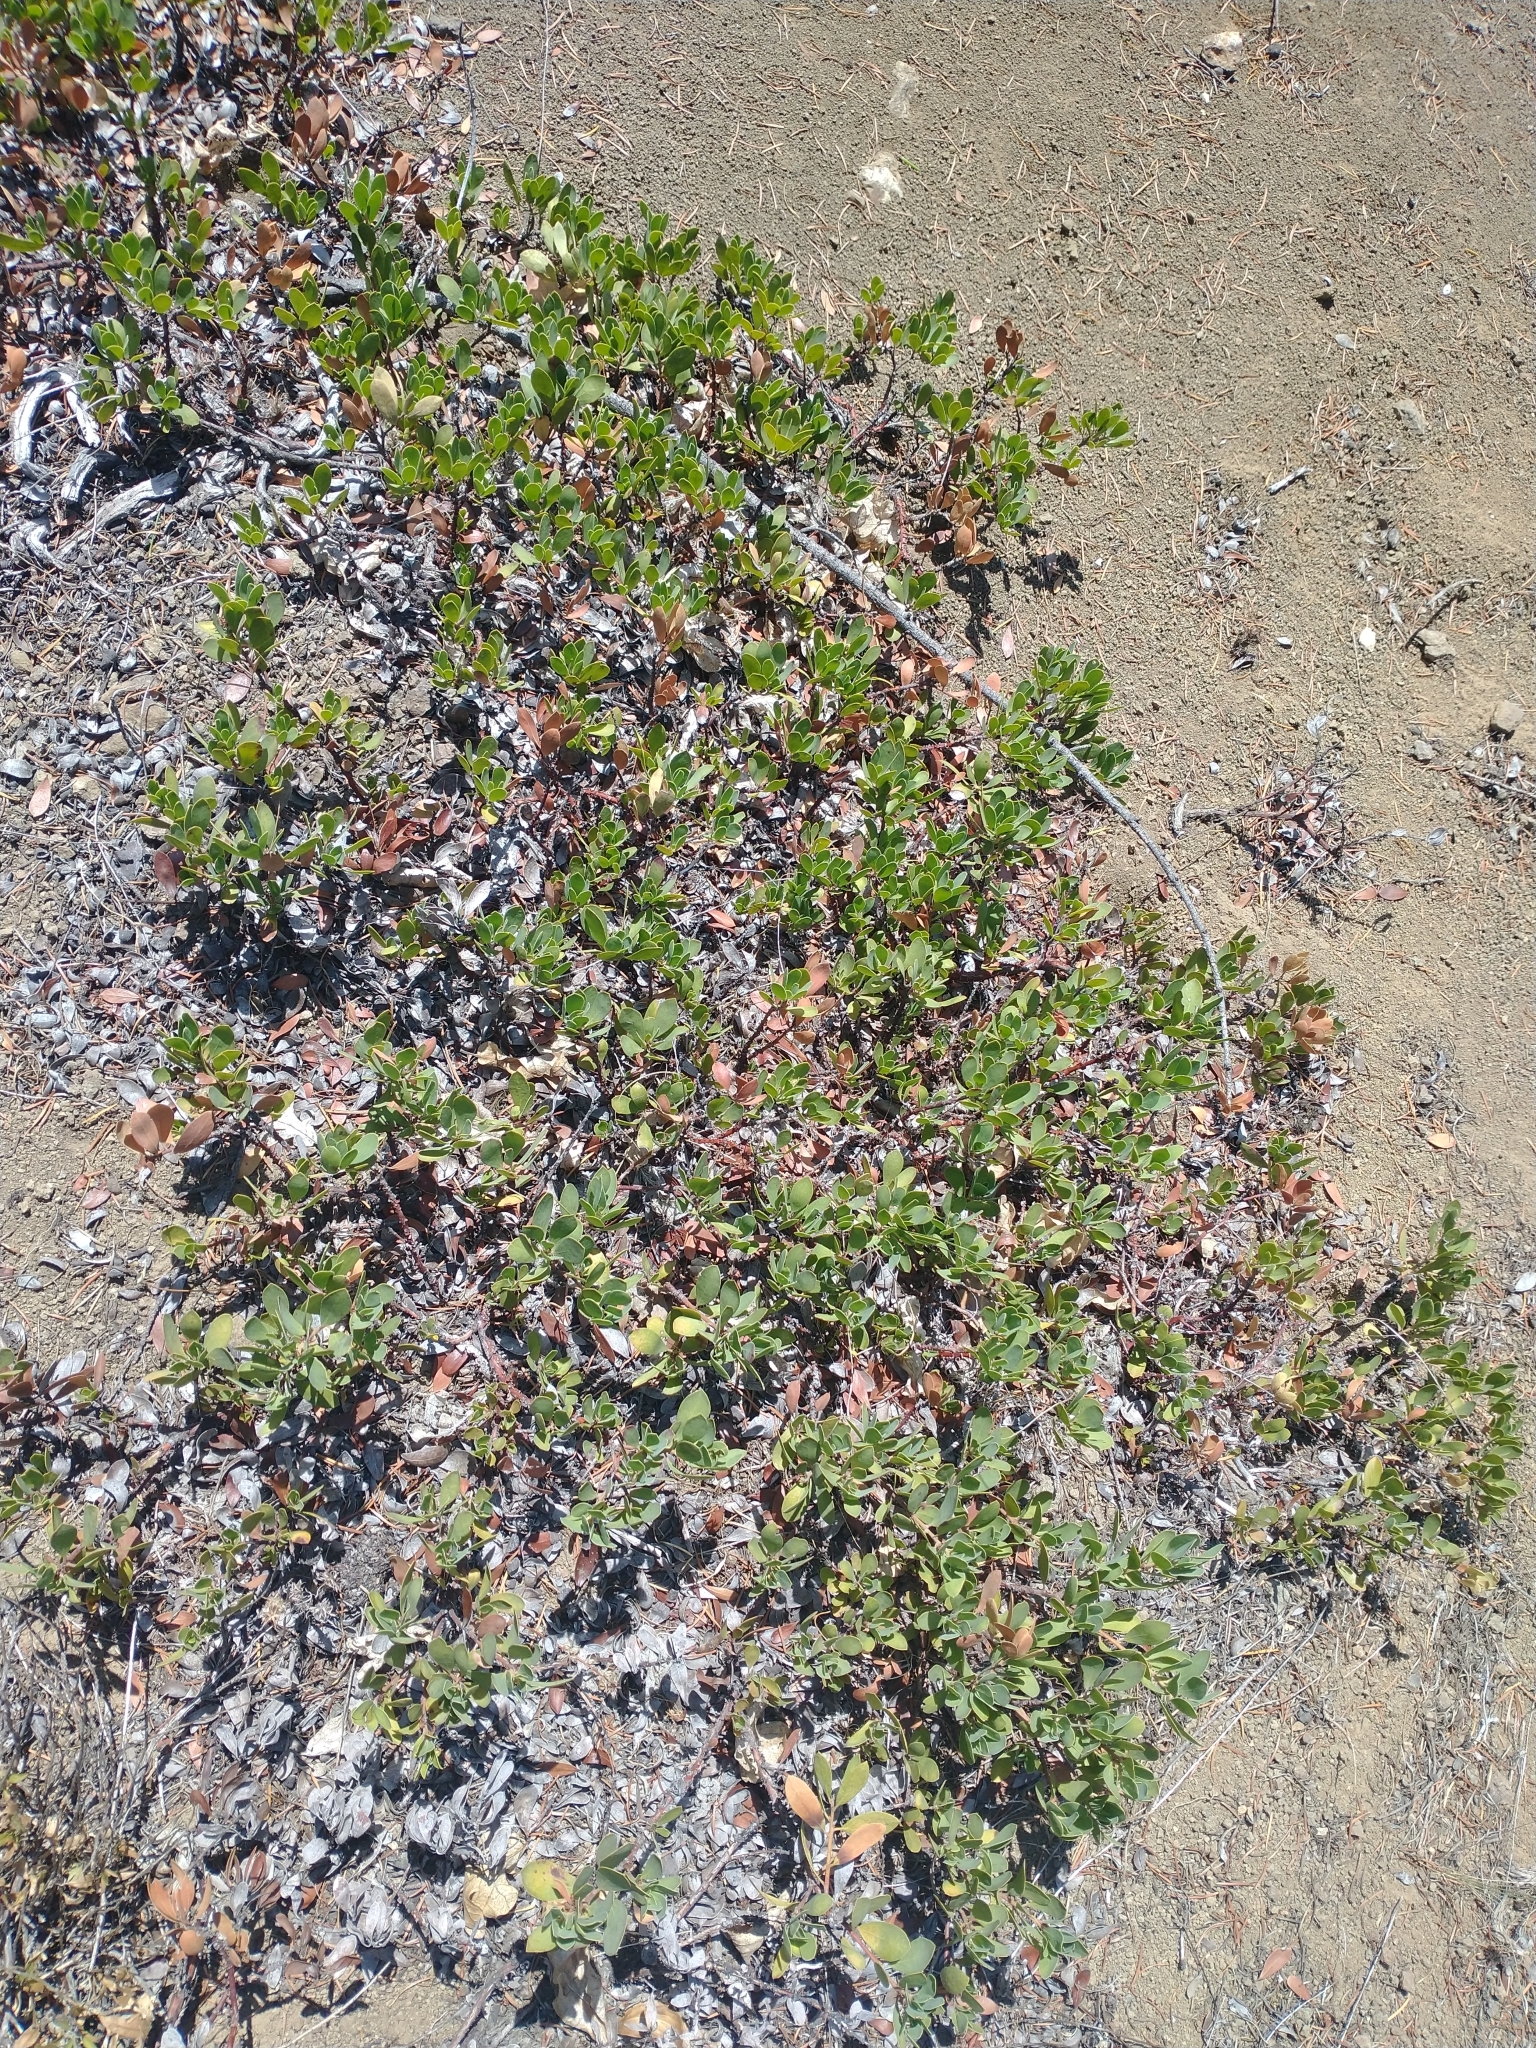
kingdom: Plantae
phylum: Tracheophyta
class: Magnoliopsida
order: Ericales
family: Ericaceae
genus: Arctostaphylos
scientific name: Arctostaphylos nevadensis
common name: Pinemat manzanita
